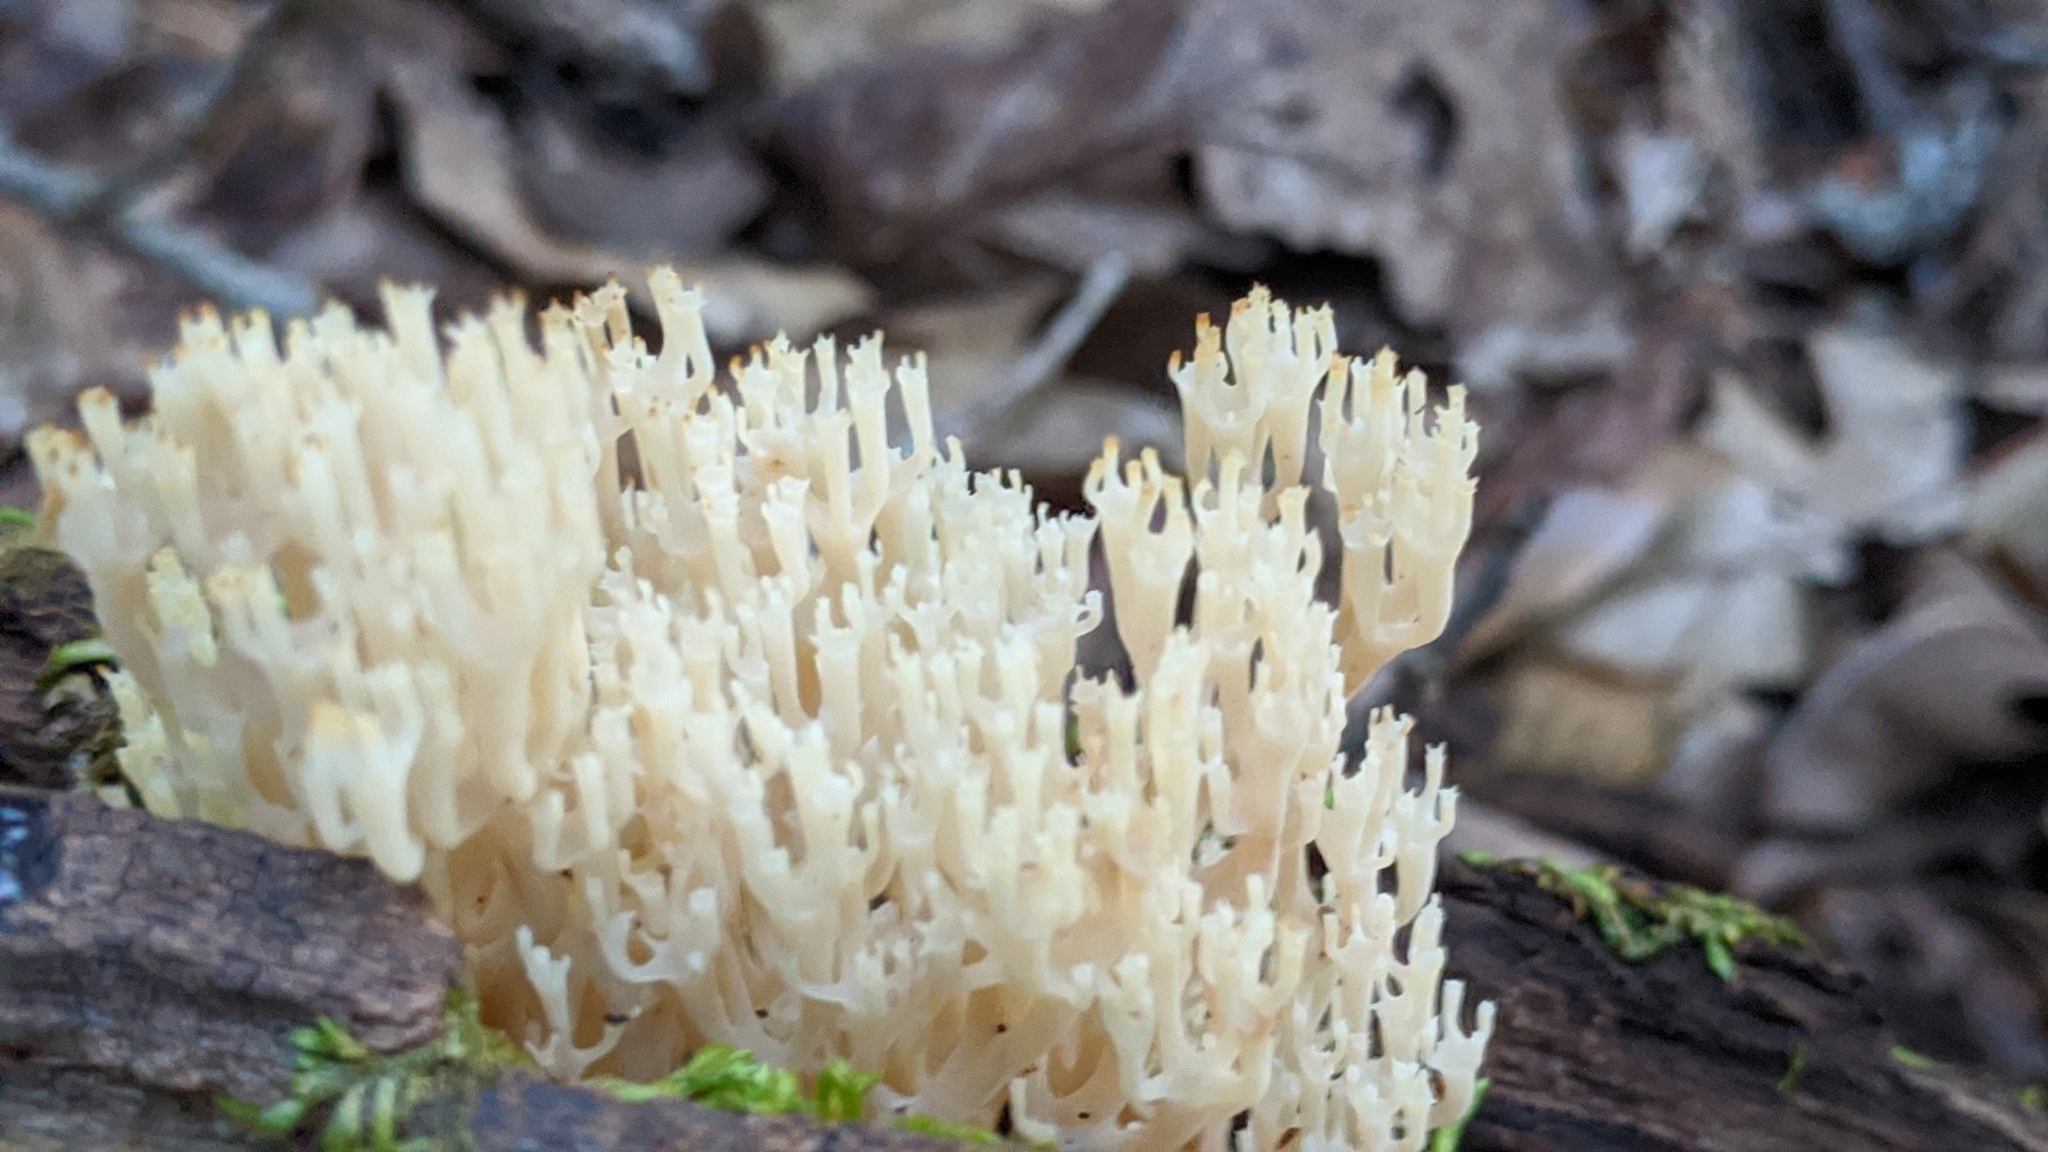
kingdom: Fungi
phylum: Basidiomycota
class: Agaricomycetes
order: Russulales
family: Auriscalpiaceae
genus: Artomyces
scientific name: Artomyces pyxidatus
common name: Crown-tipped coral fungus
